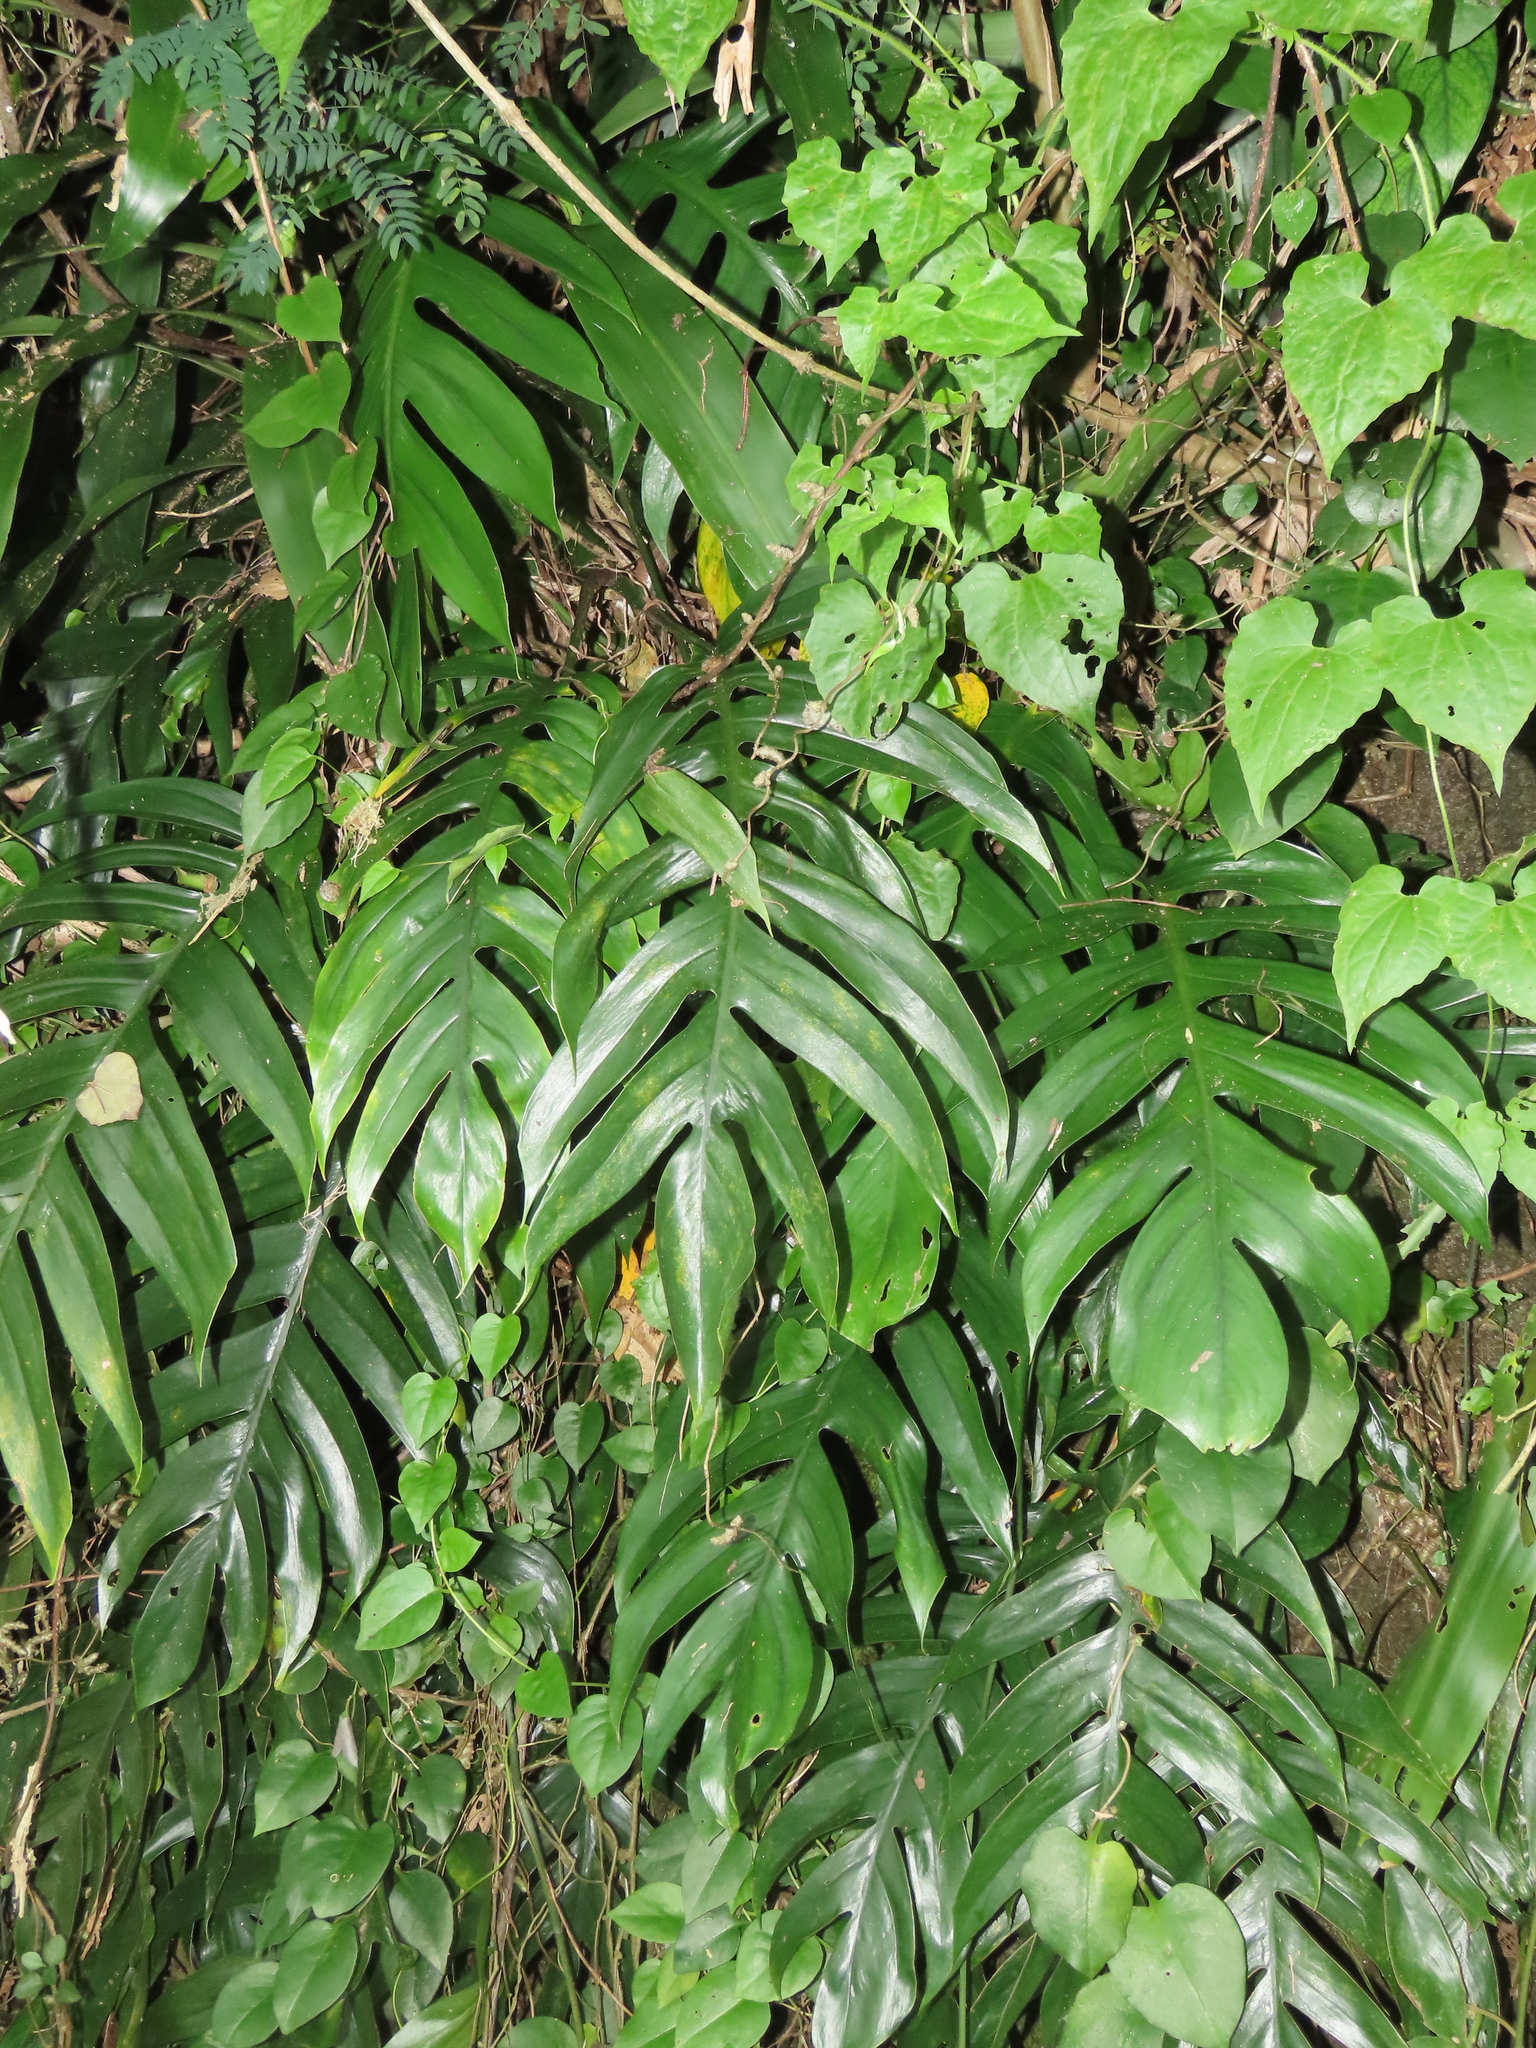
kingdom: Plantae
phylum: Tracheophyta
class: Liliopsida
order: Alismatales
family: Araceae
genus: Epipremnum
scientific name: Epipremnum pinnatum
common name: Centipede tongavine
